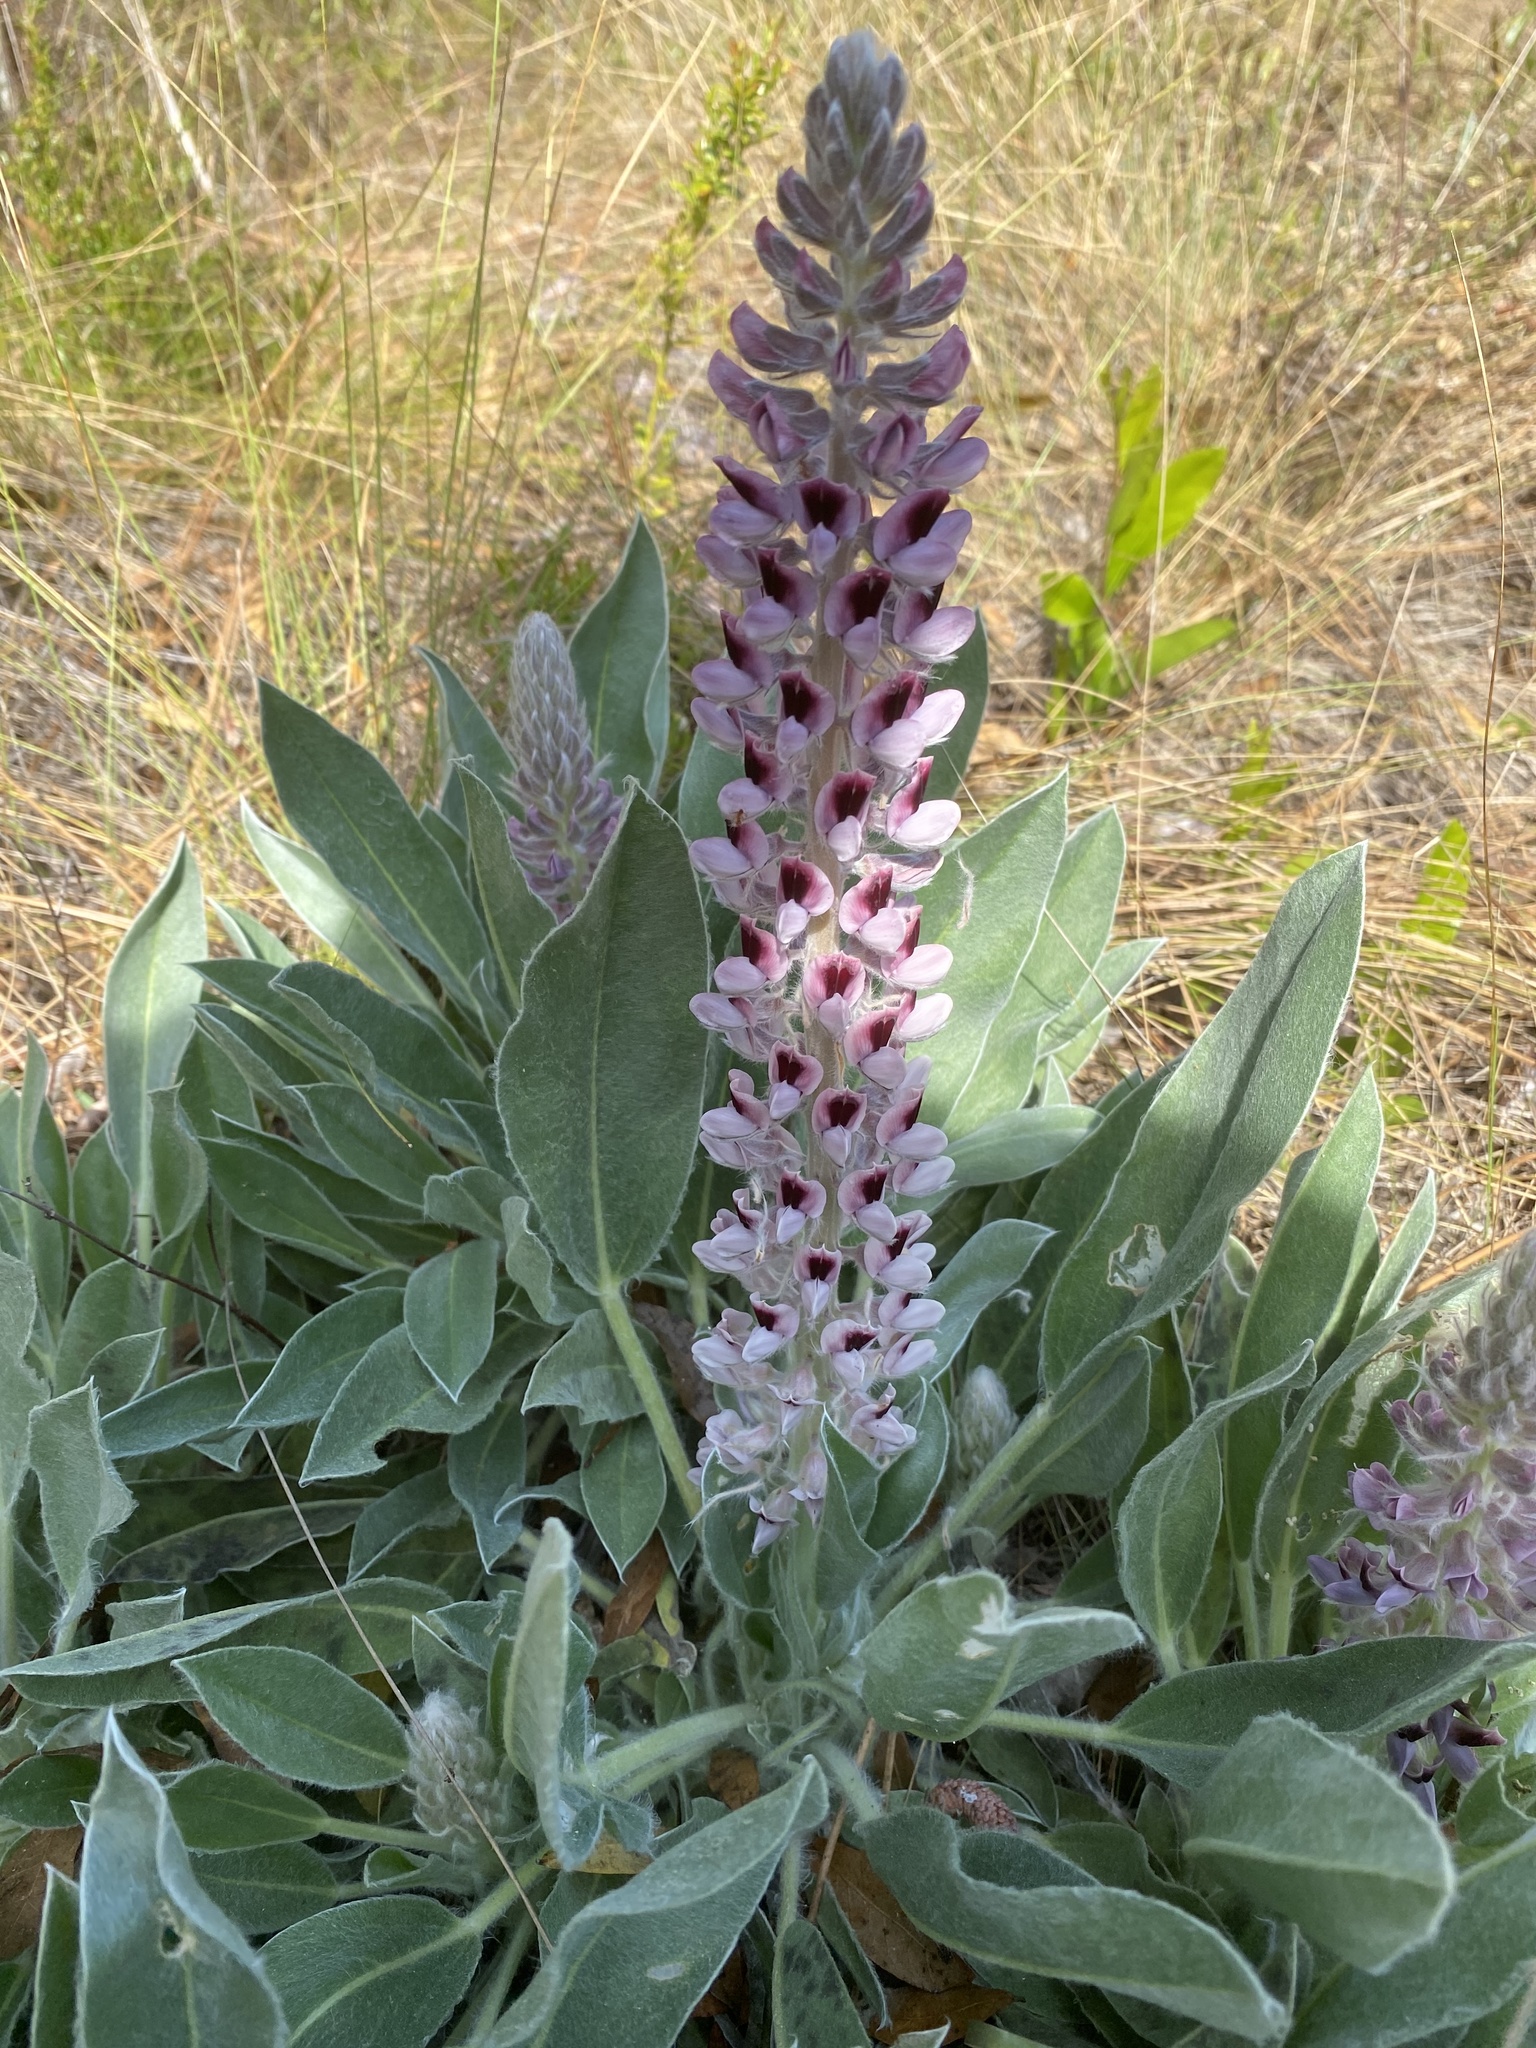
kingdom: Plantae
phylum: Tracheophyta
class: Magnoliopsida
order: Fabales
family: Fabaceae
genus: Lupinus
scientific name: Lupinus villosus
